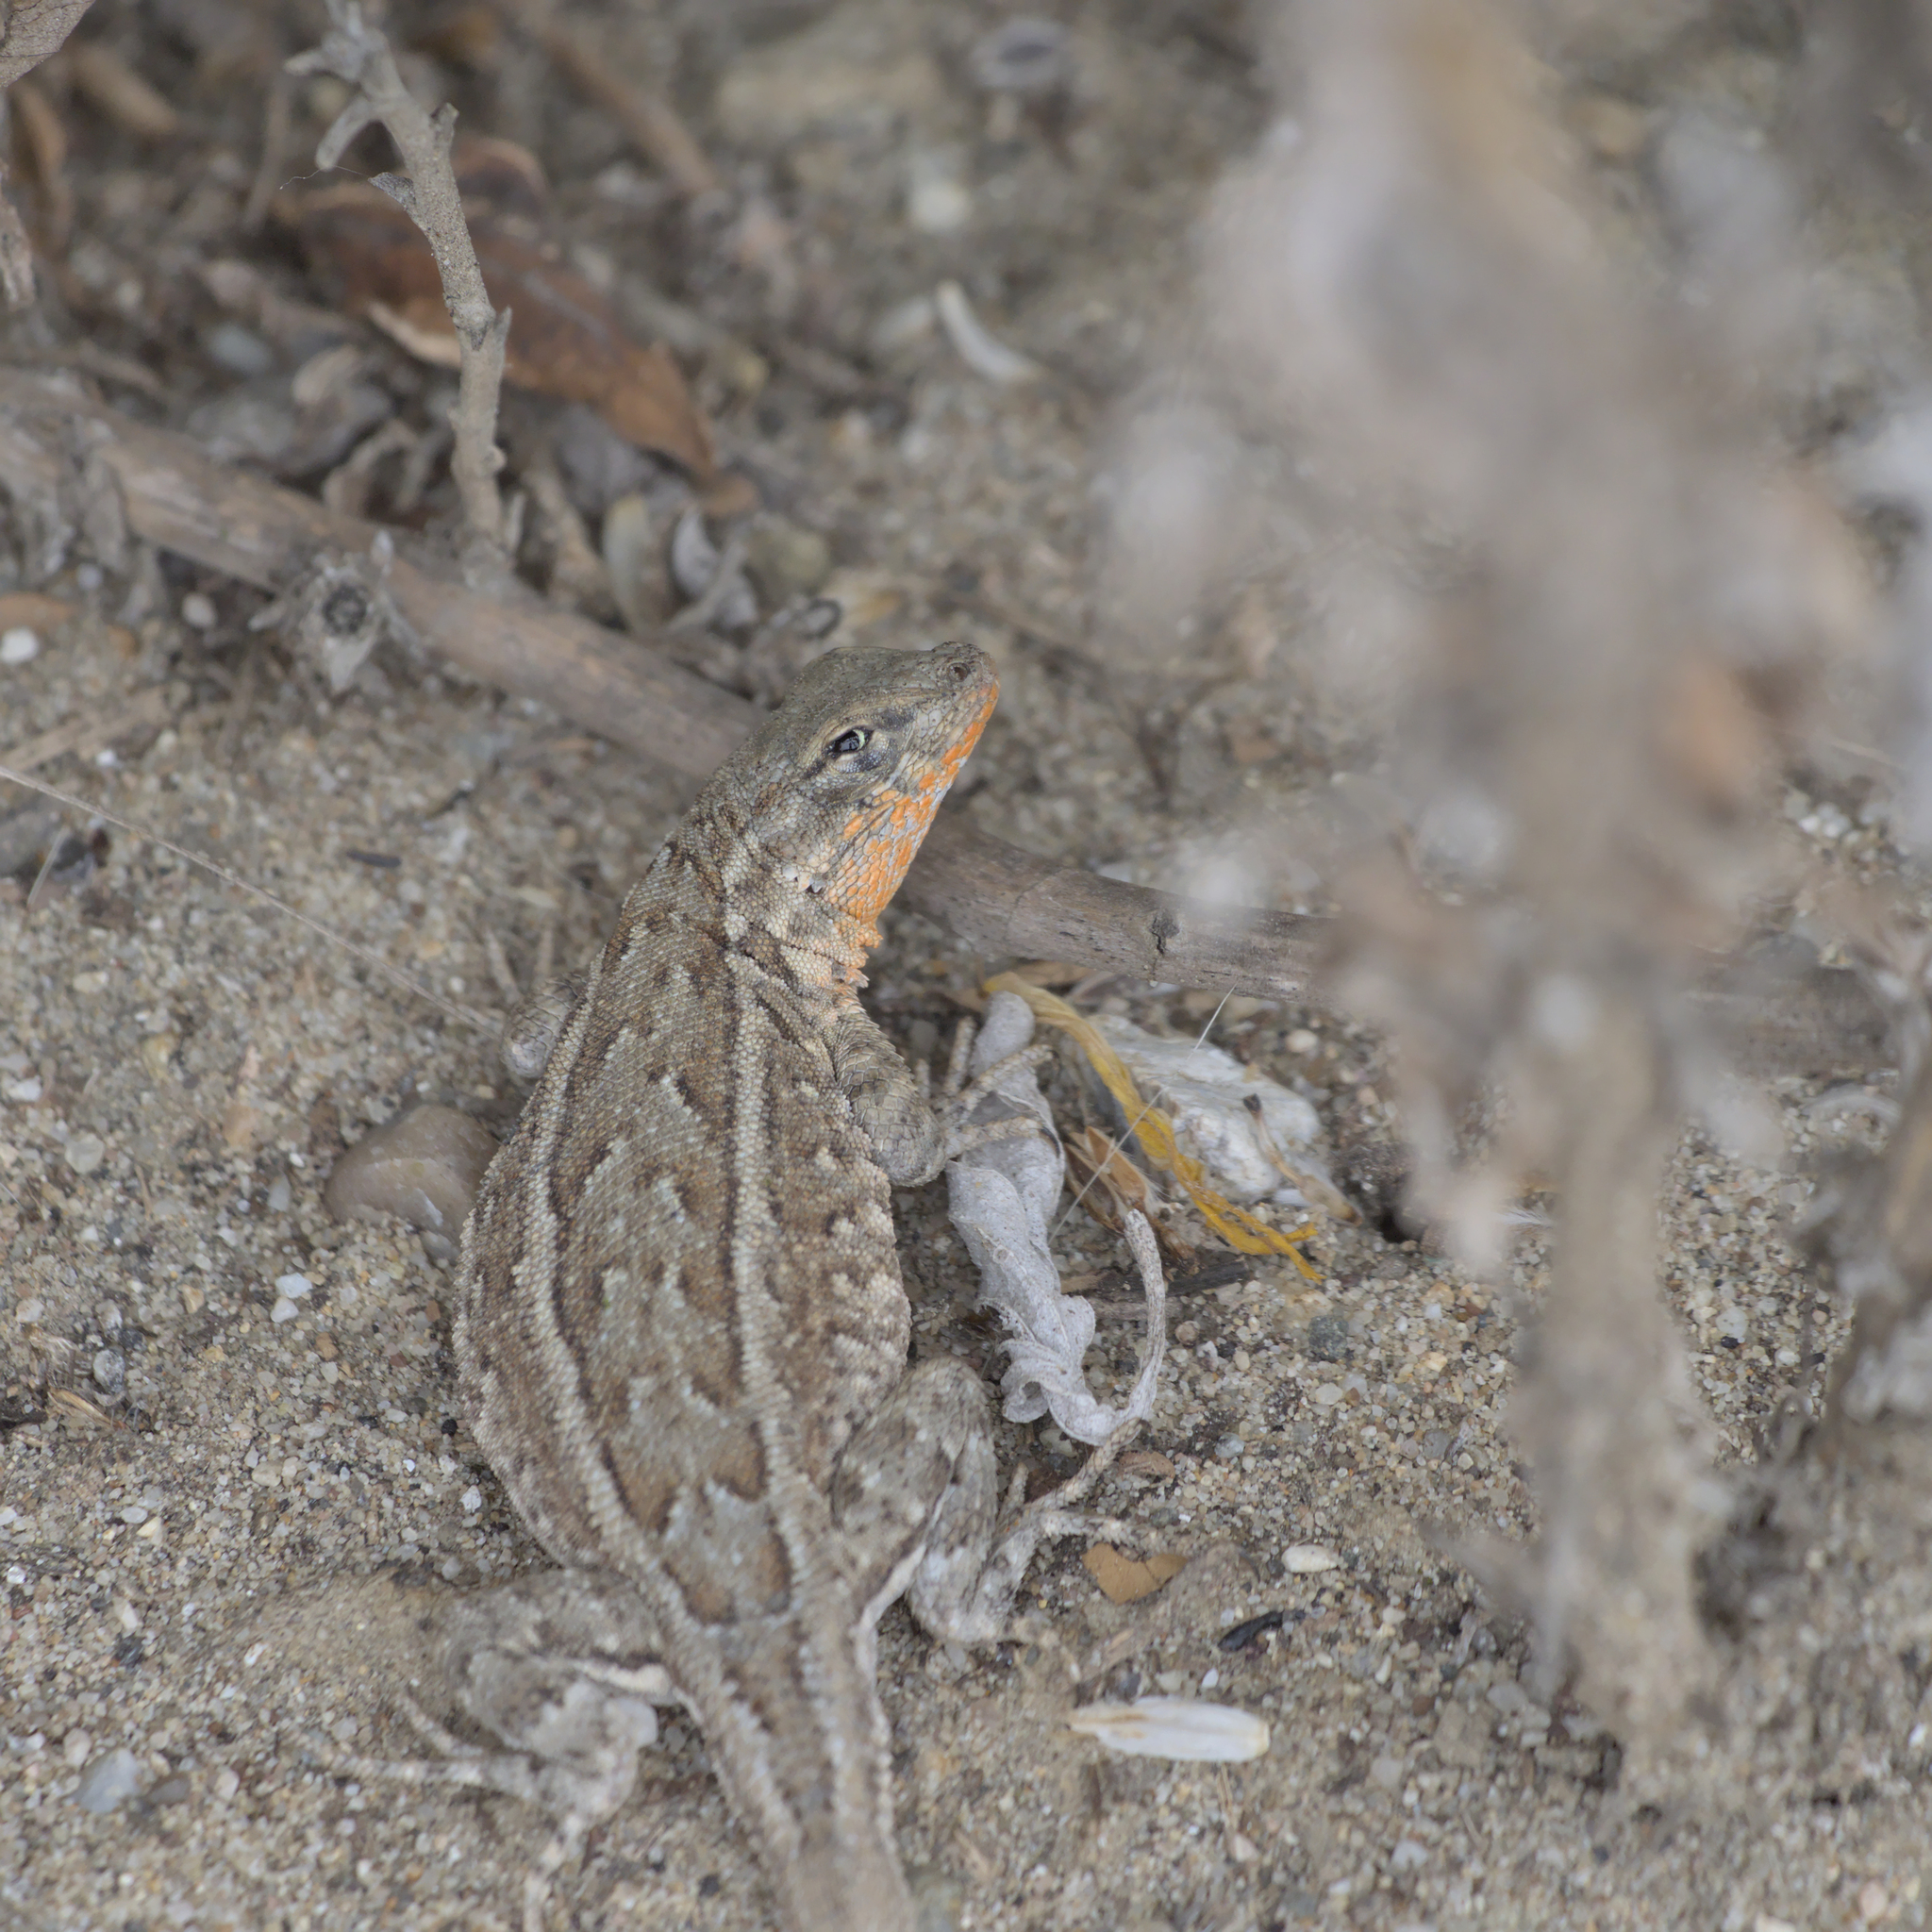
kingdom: Animalia
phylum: Chordata
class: Squamata
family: Phrynosomatidae
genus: Uta
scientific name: Uta stansburiana
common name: Side-blotched lizard
